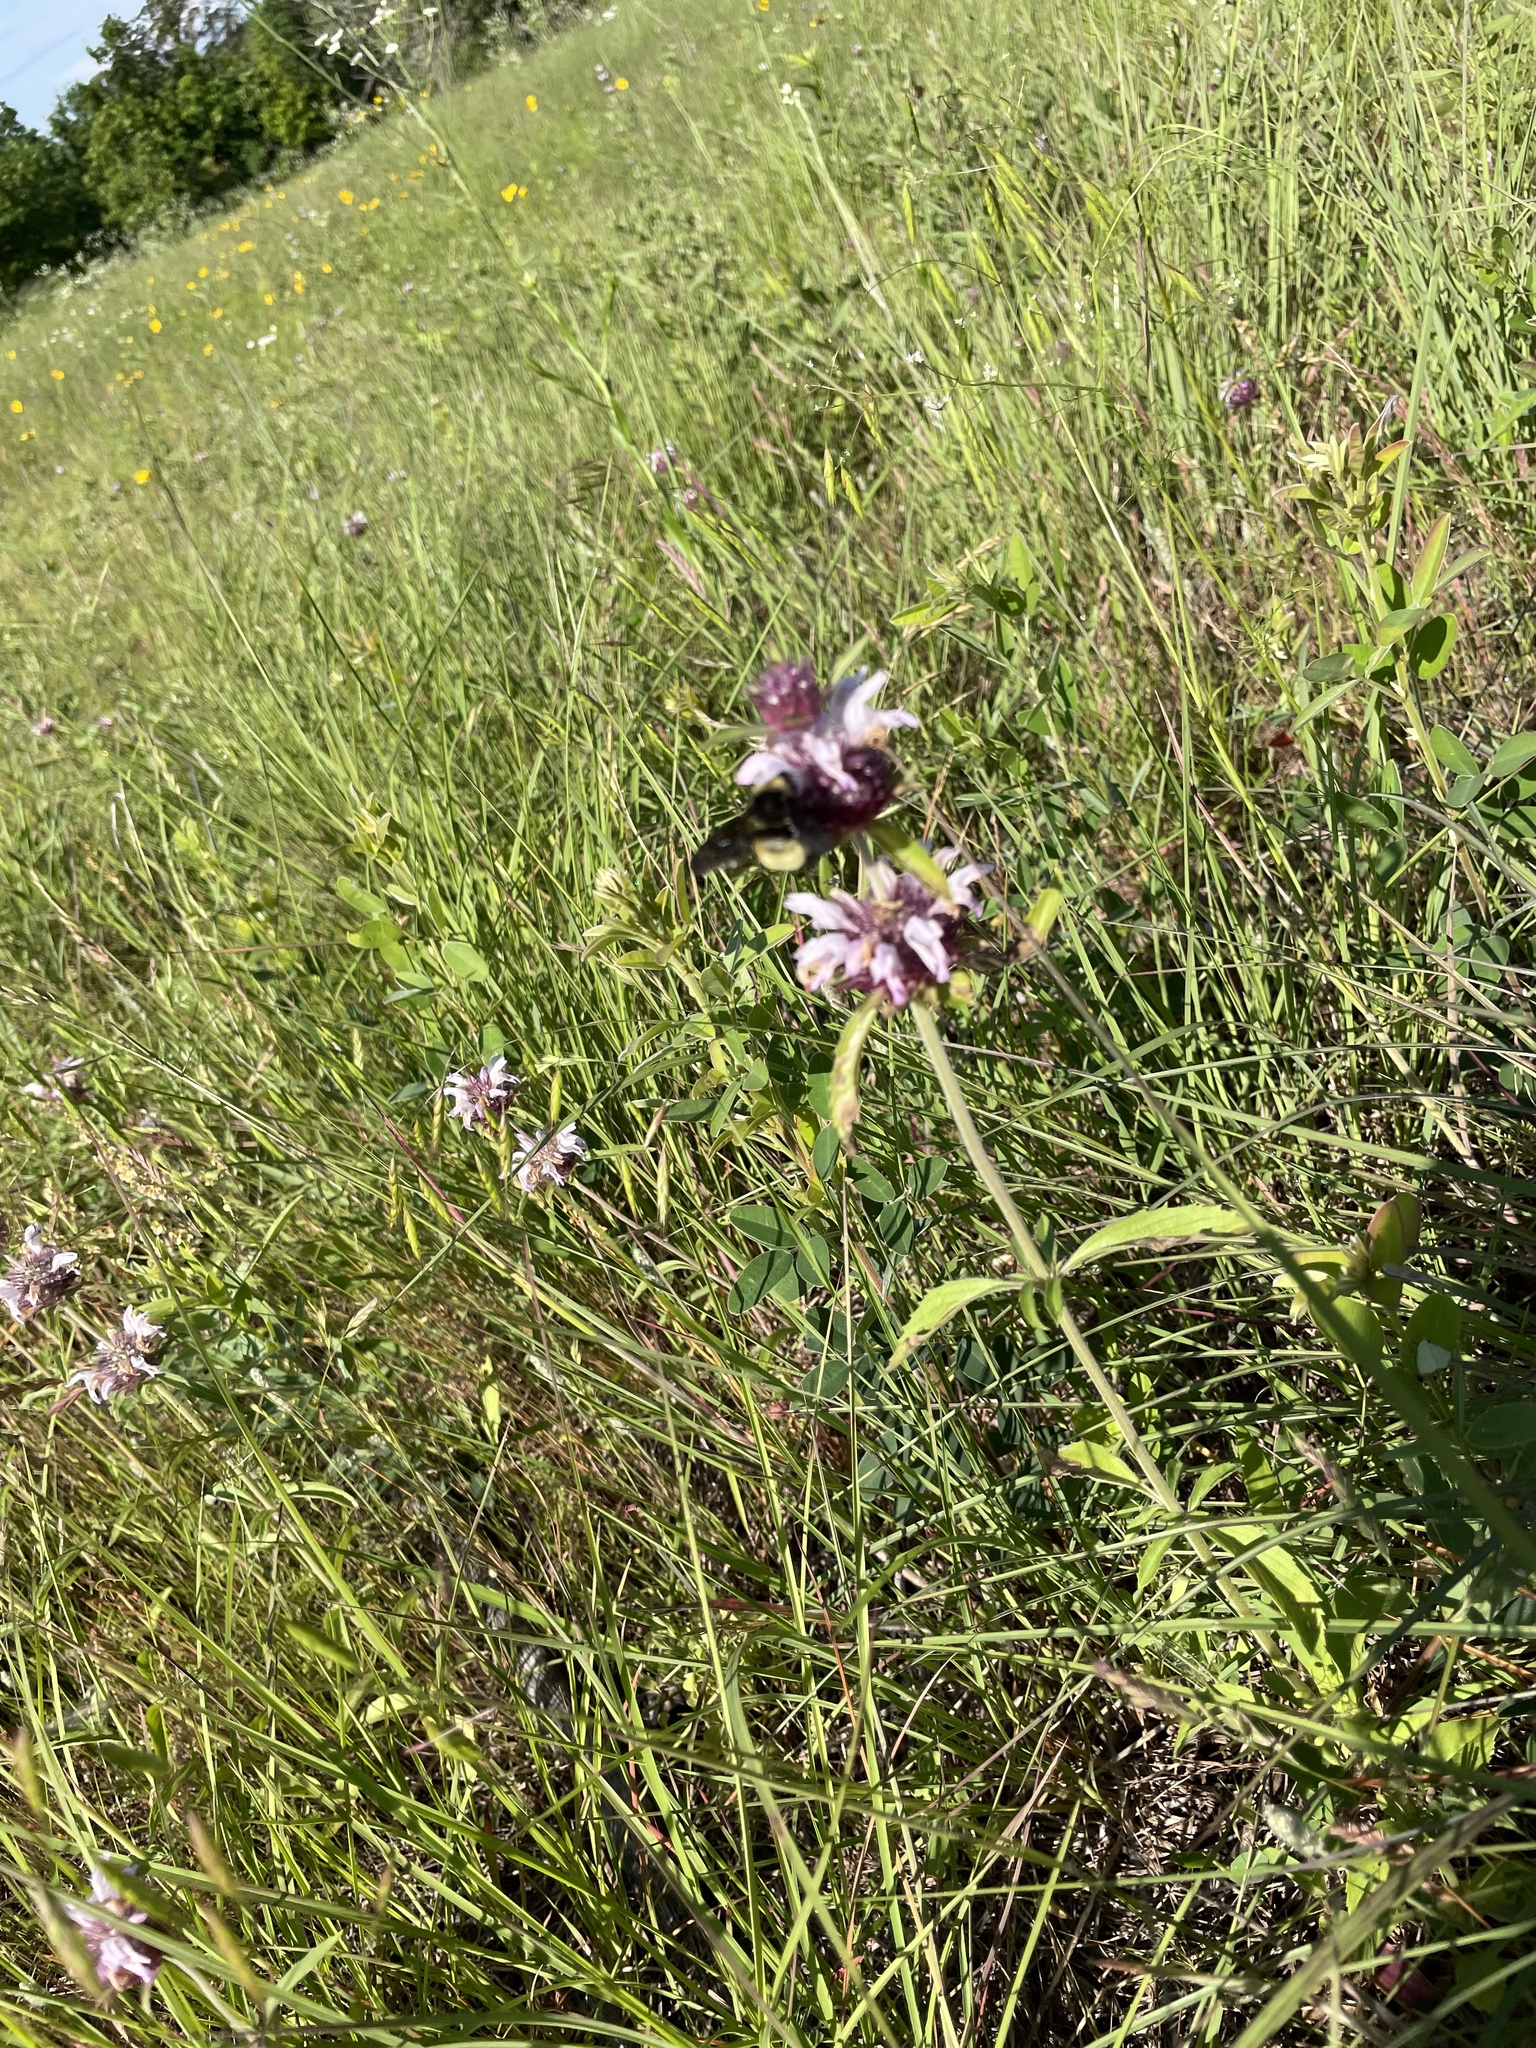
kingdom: Animalia
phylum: Arthropoda
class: Insecta
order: Hymenoptera
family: Apidae
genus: Bombus
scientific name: Bombus pensylvanicus
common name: Bumble bee
